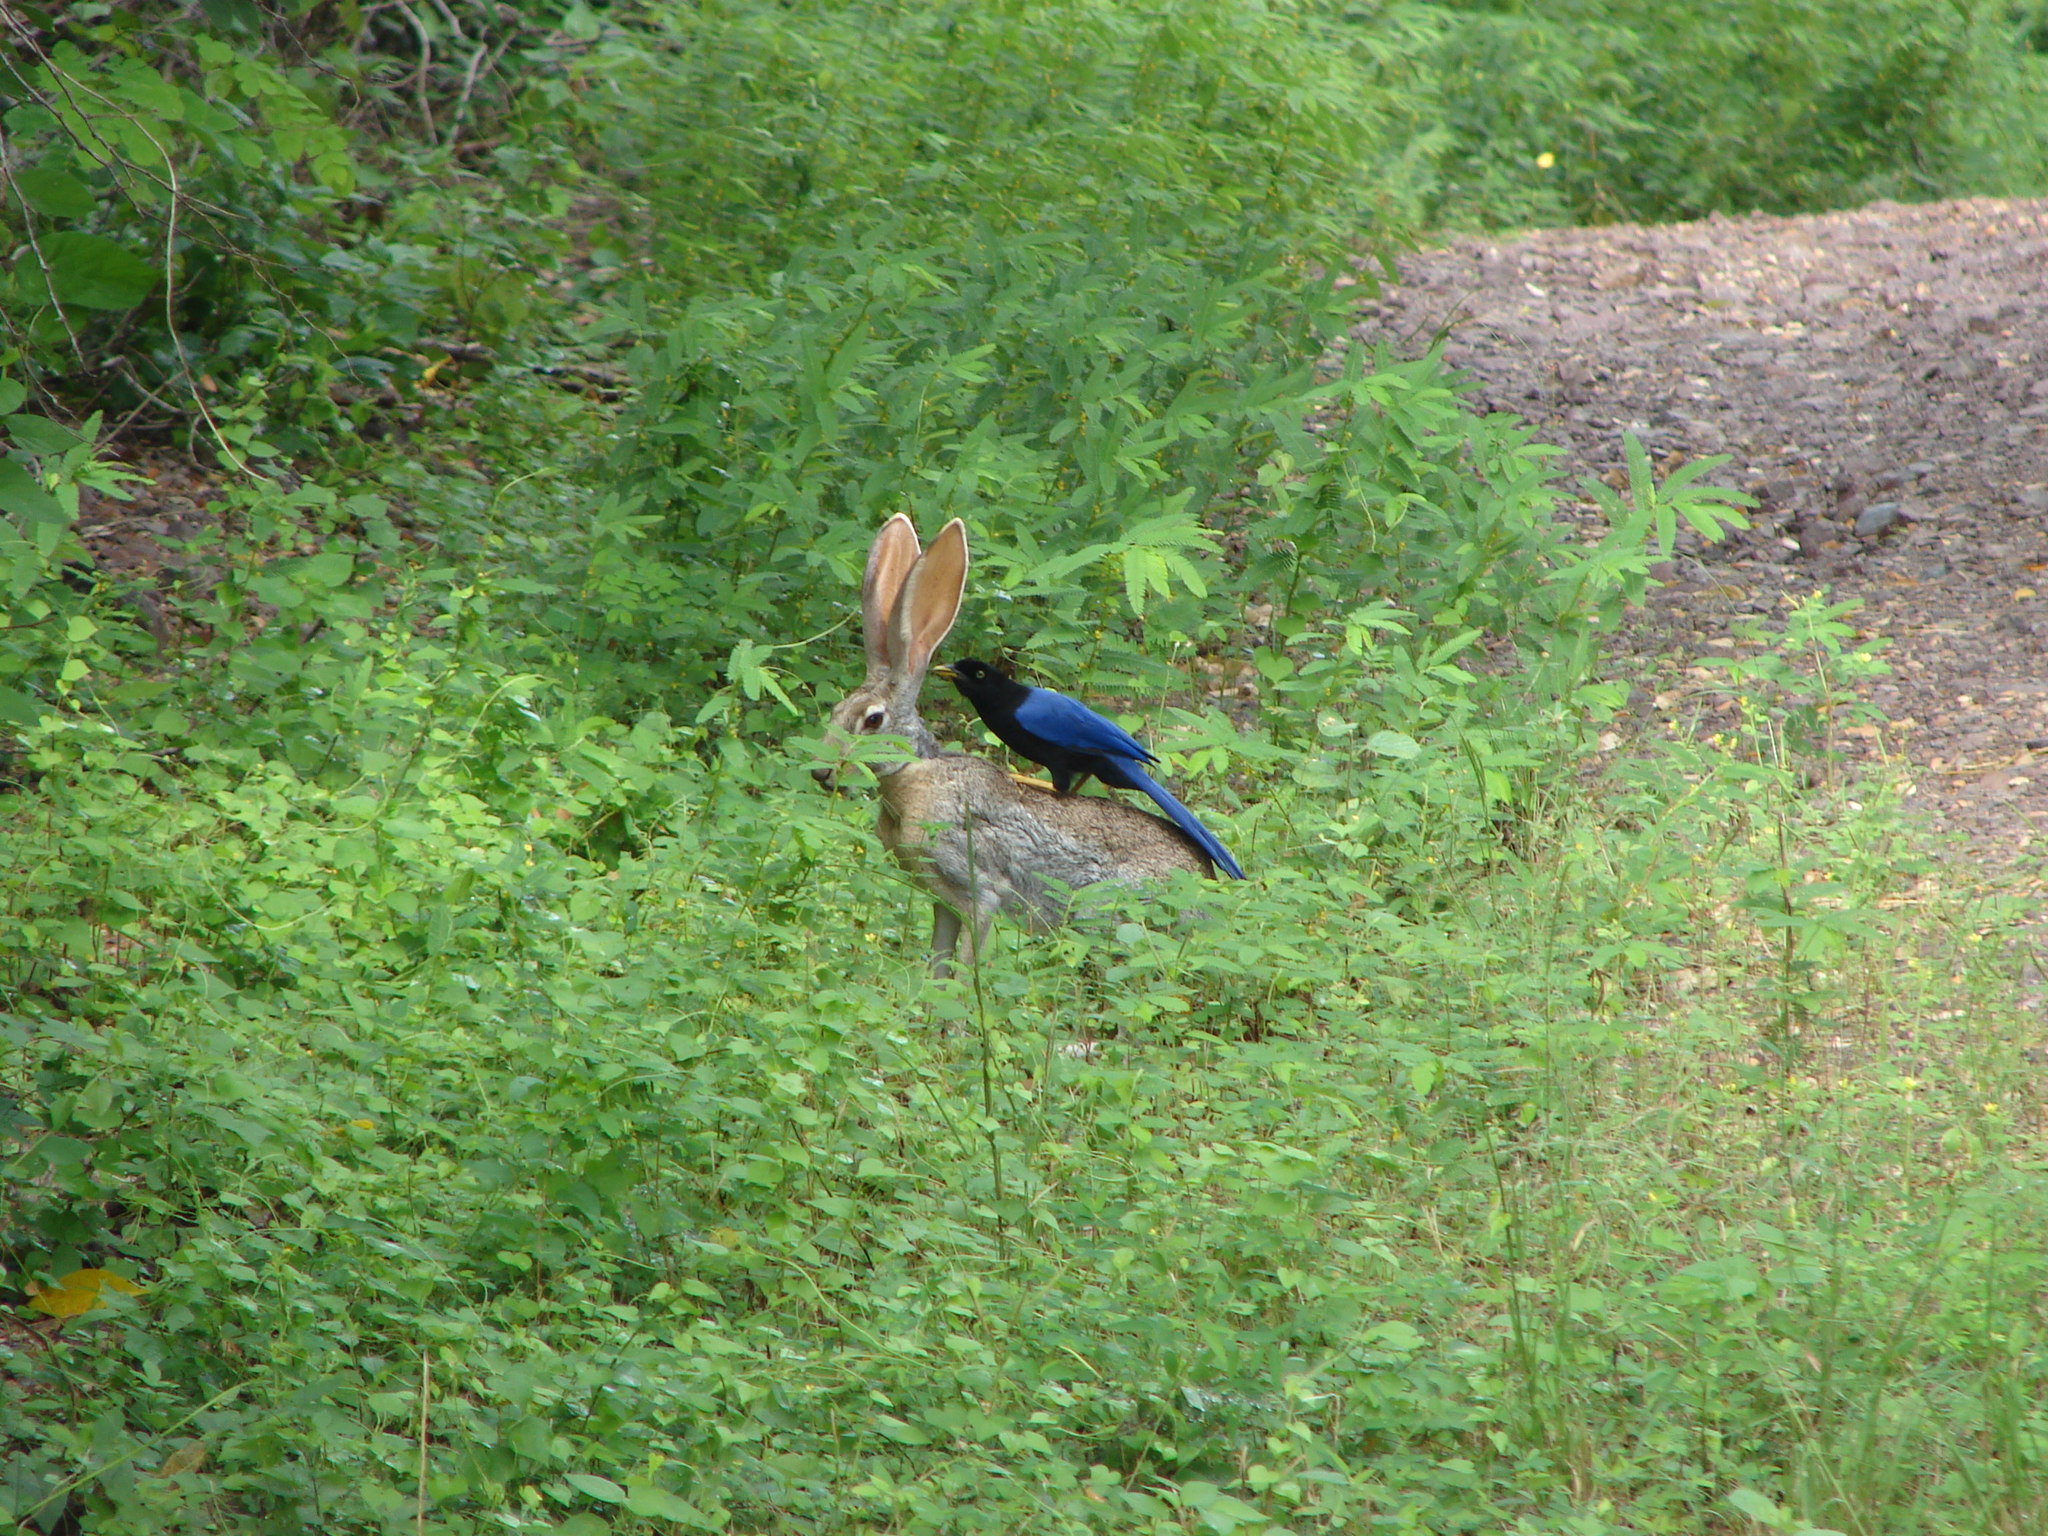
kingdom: Animalia
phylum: Chordata
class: Aves
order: Passeriformes
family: Corvidae
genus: Cyanocorax
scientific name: Cyanocorax beecheii
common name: Purplish-backed jay
